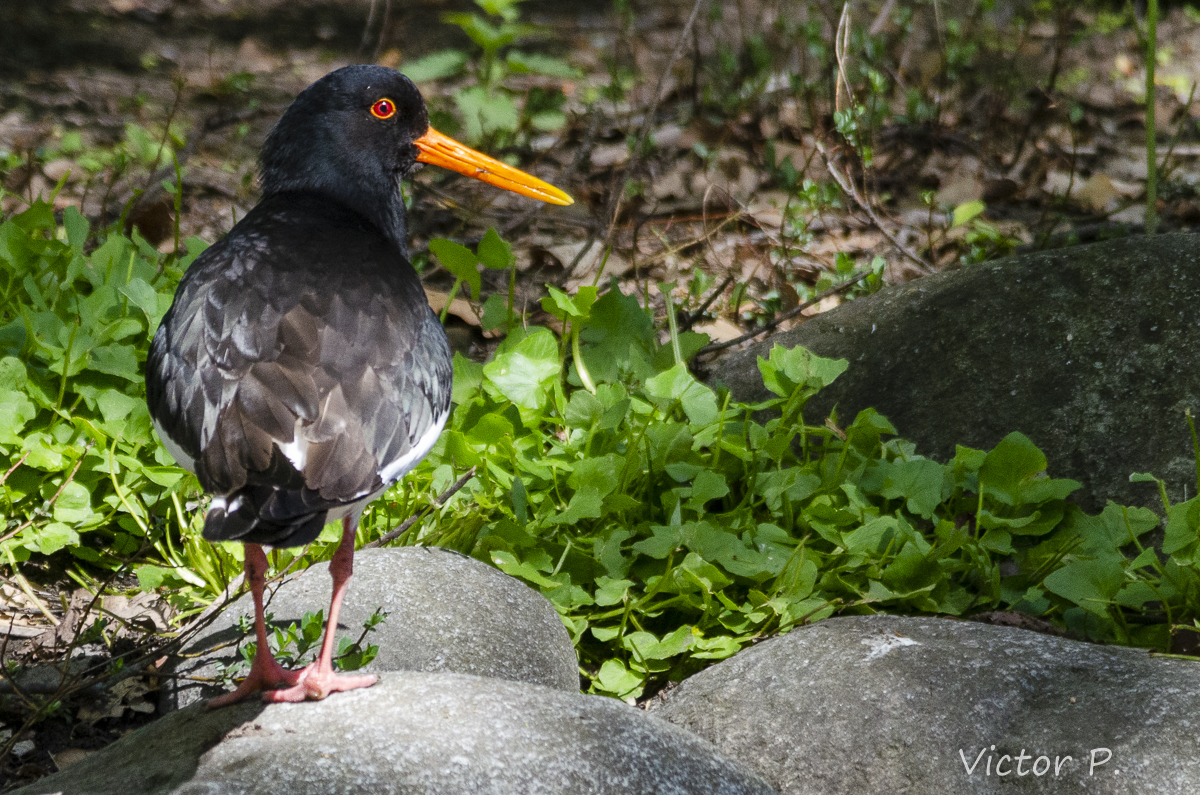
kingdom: Animalia
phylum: Chordata
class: Aves
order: Charadriiformes
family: Haematopodidae
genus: Haematopus
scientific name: Haematopus ostralegus
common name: Eurasian oystercatcher
